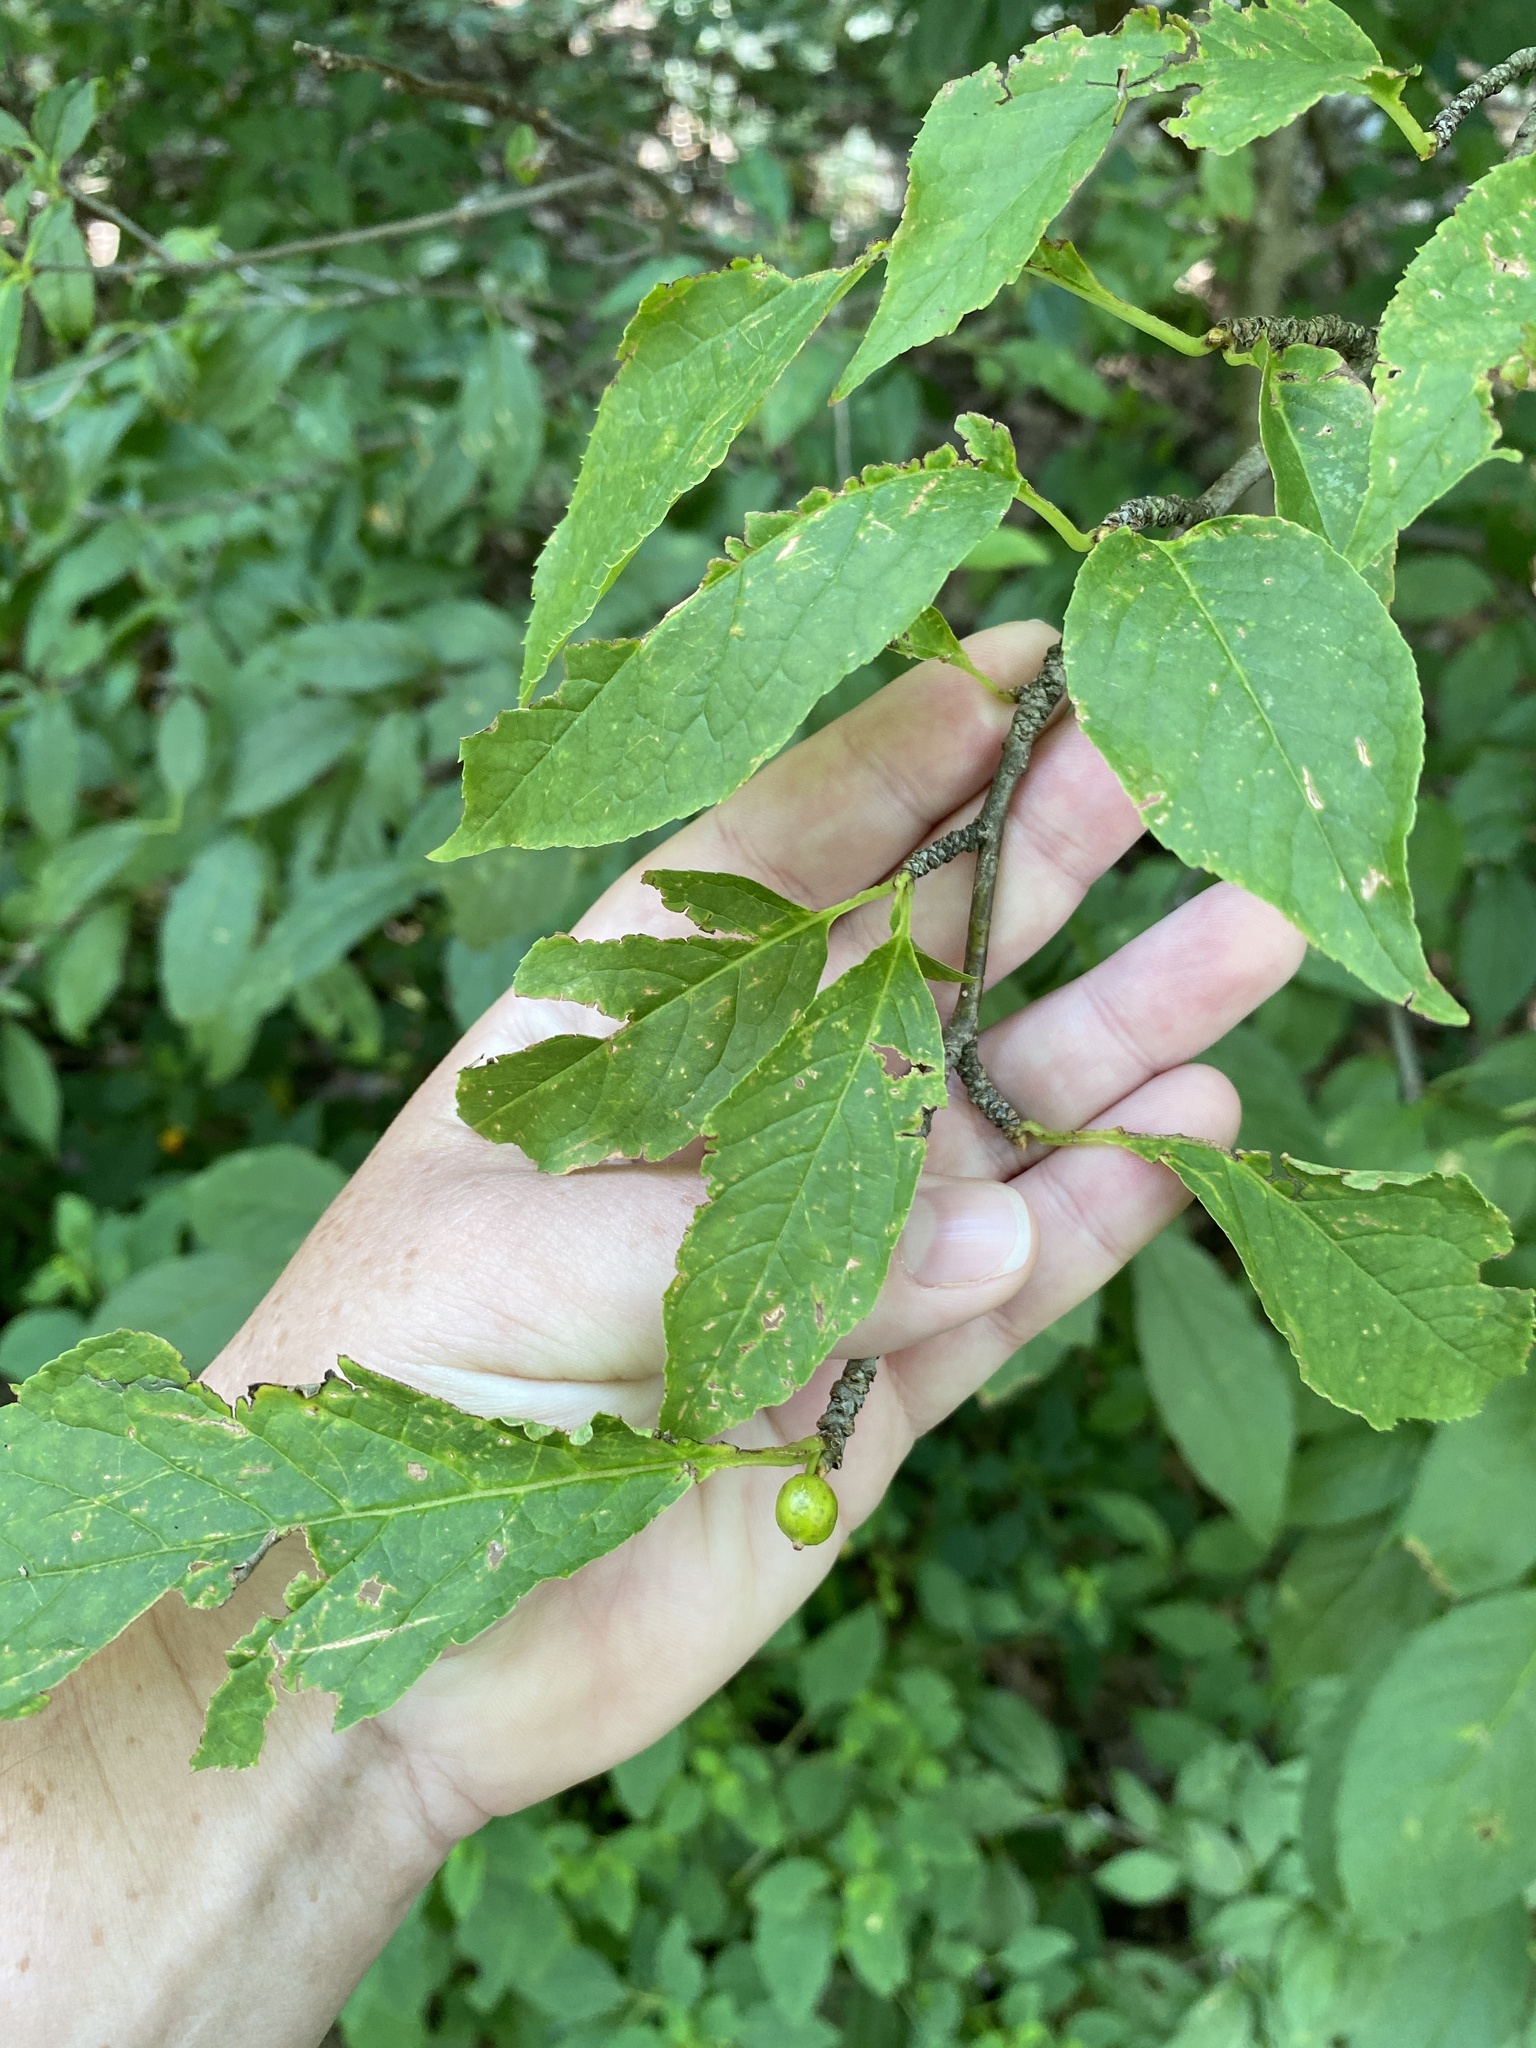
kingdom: Plantae
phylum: Tracheophyta
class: Magnoliopsida
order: Aquifoliales
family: Aquifoliaceae
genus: Ilex
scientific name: Ilex montana
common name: Mountain winterberry
